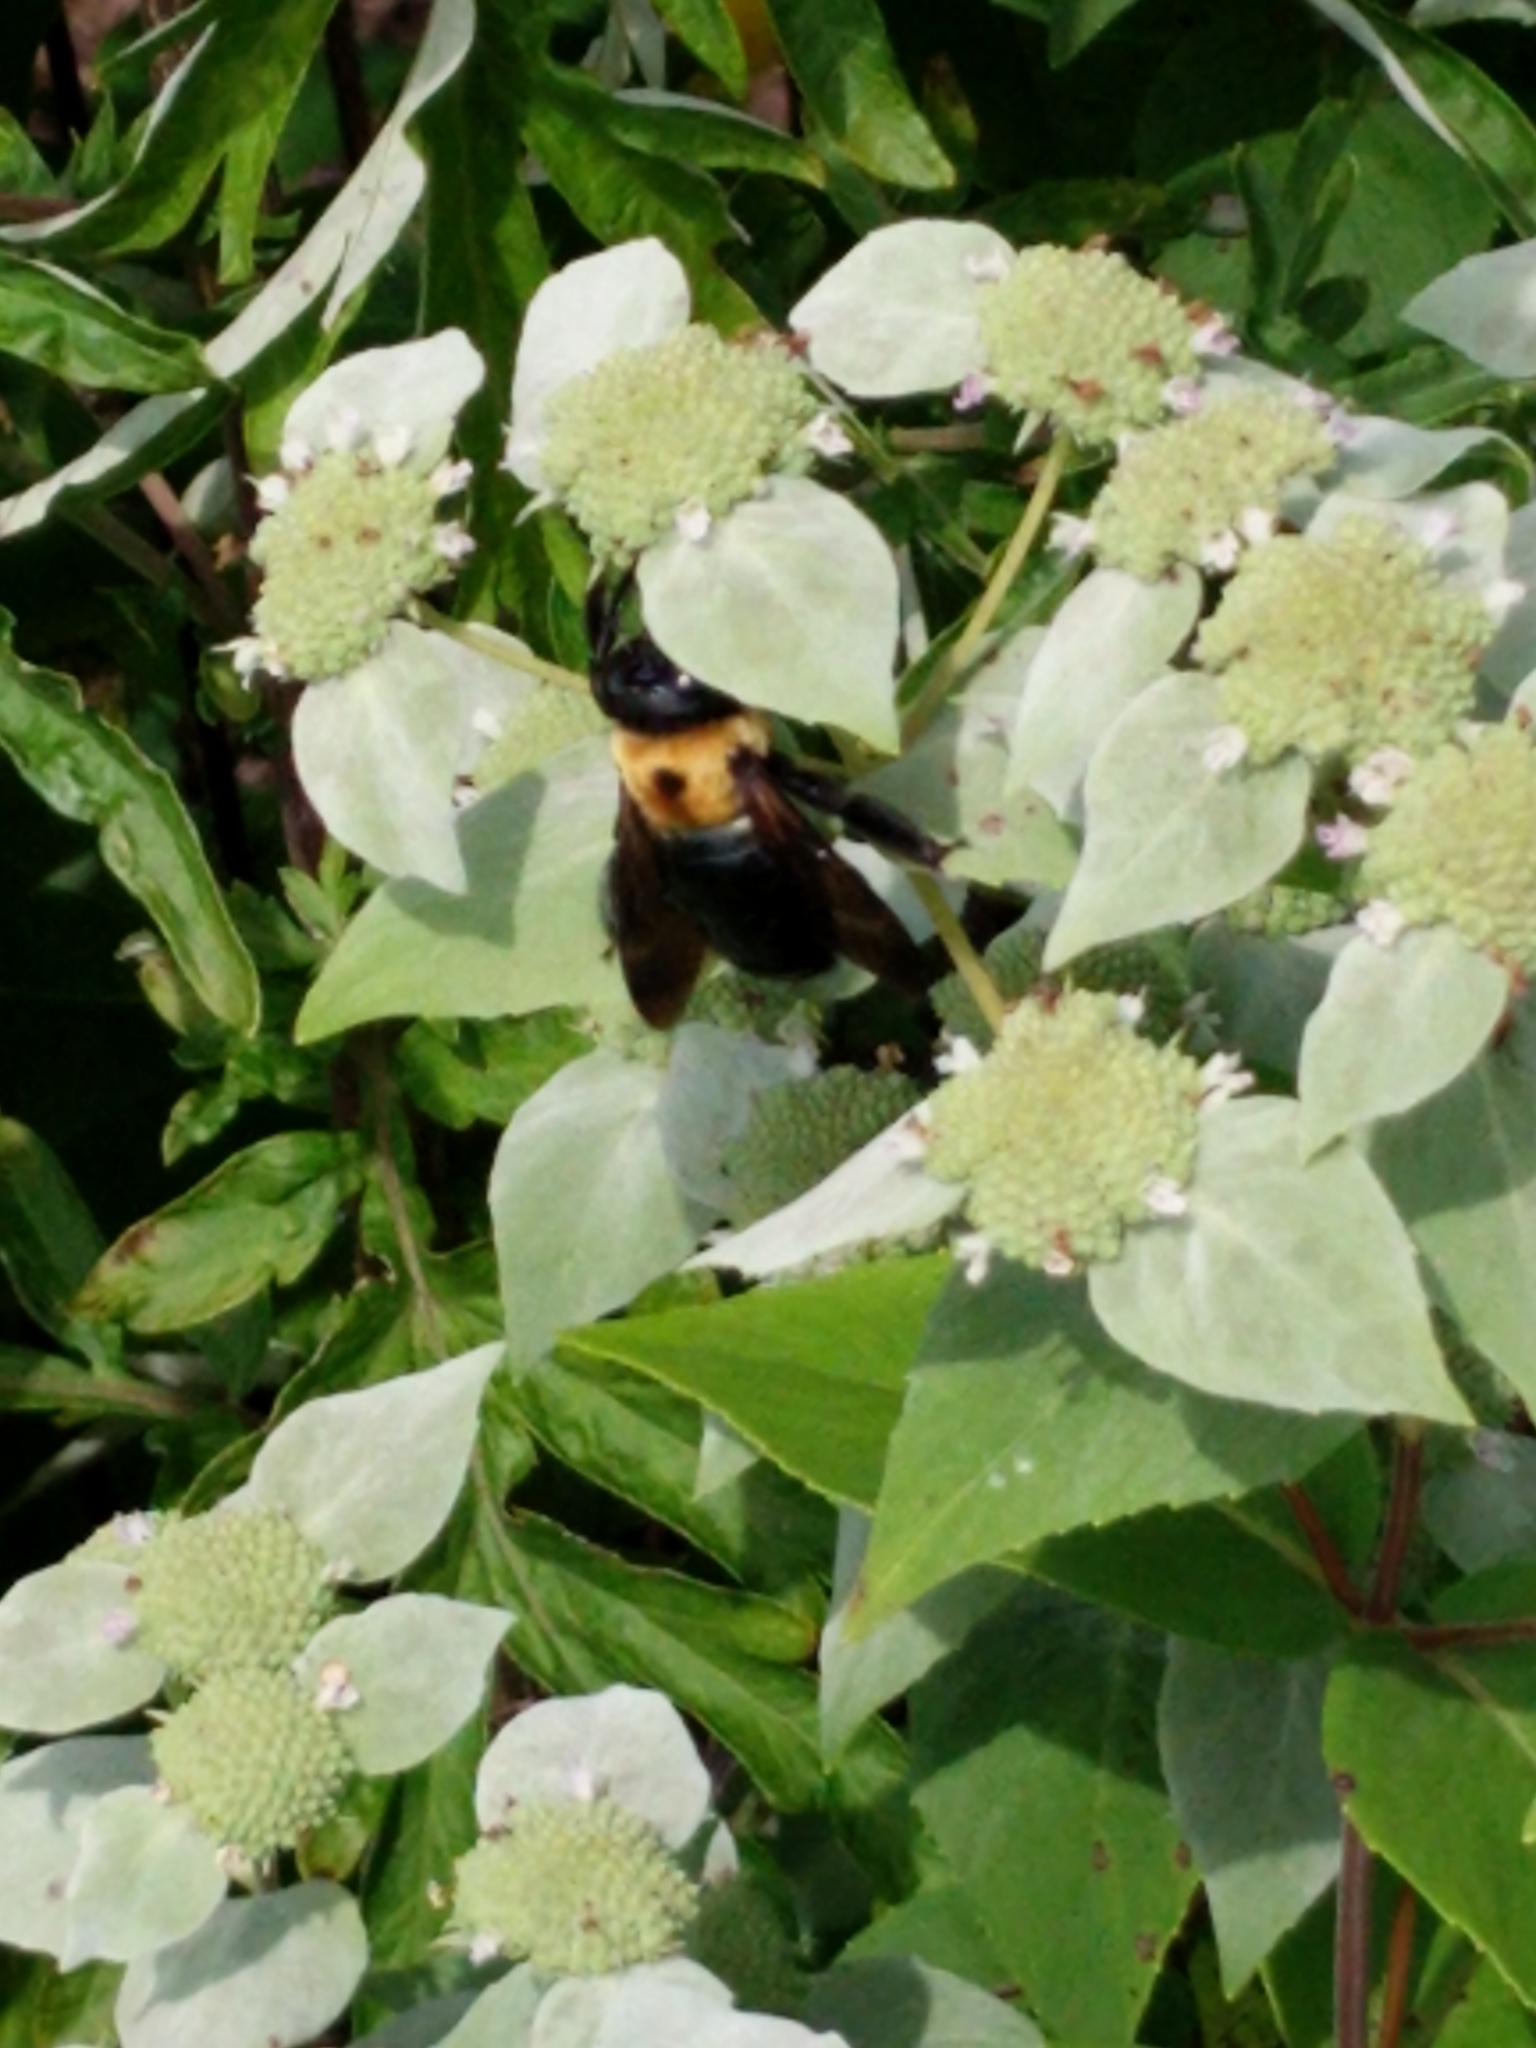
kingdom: Animalia
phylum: Arthropoda
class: Insecta
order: Hymenoptera
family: Apidae
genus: Xylocopa
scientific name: Xylocopa virginica
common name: Carpenter bee
